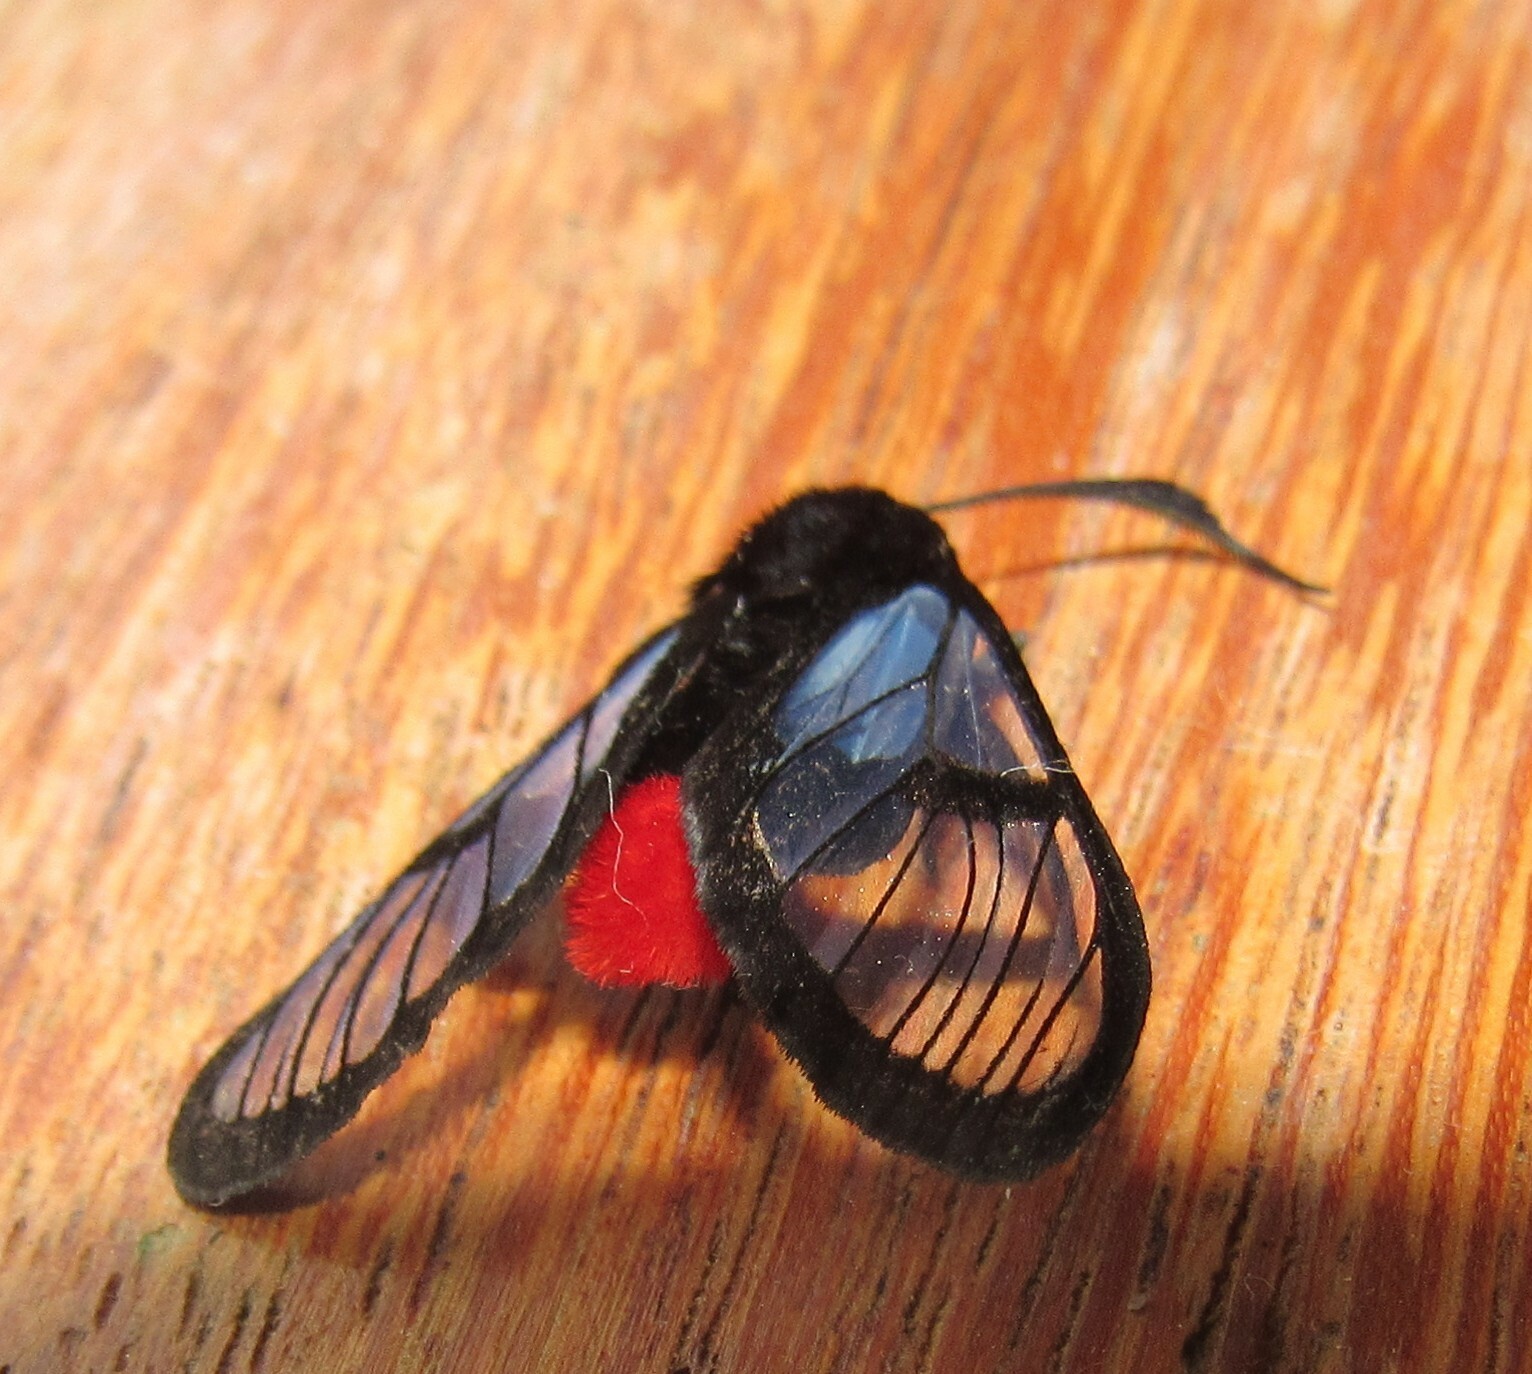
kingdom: Animalia
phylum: Arthropoda
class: Insecta
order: Lepidoptera
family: Erebidae
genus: Clystea
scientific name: Clystea andromacha
